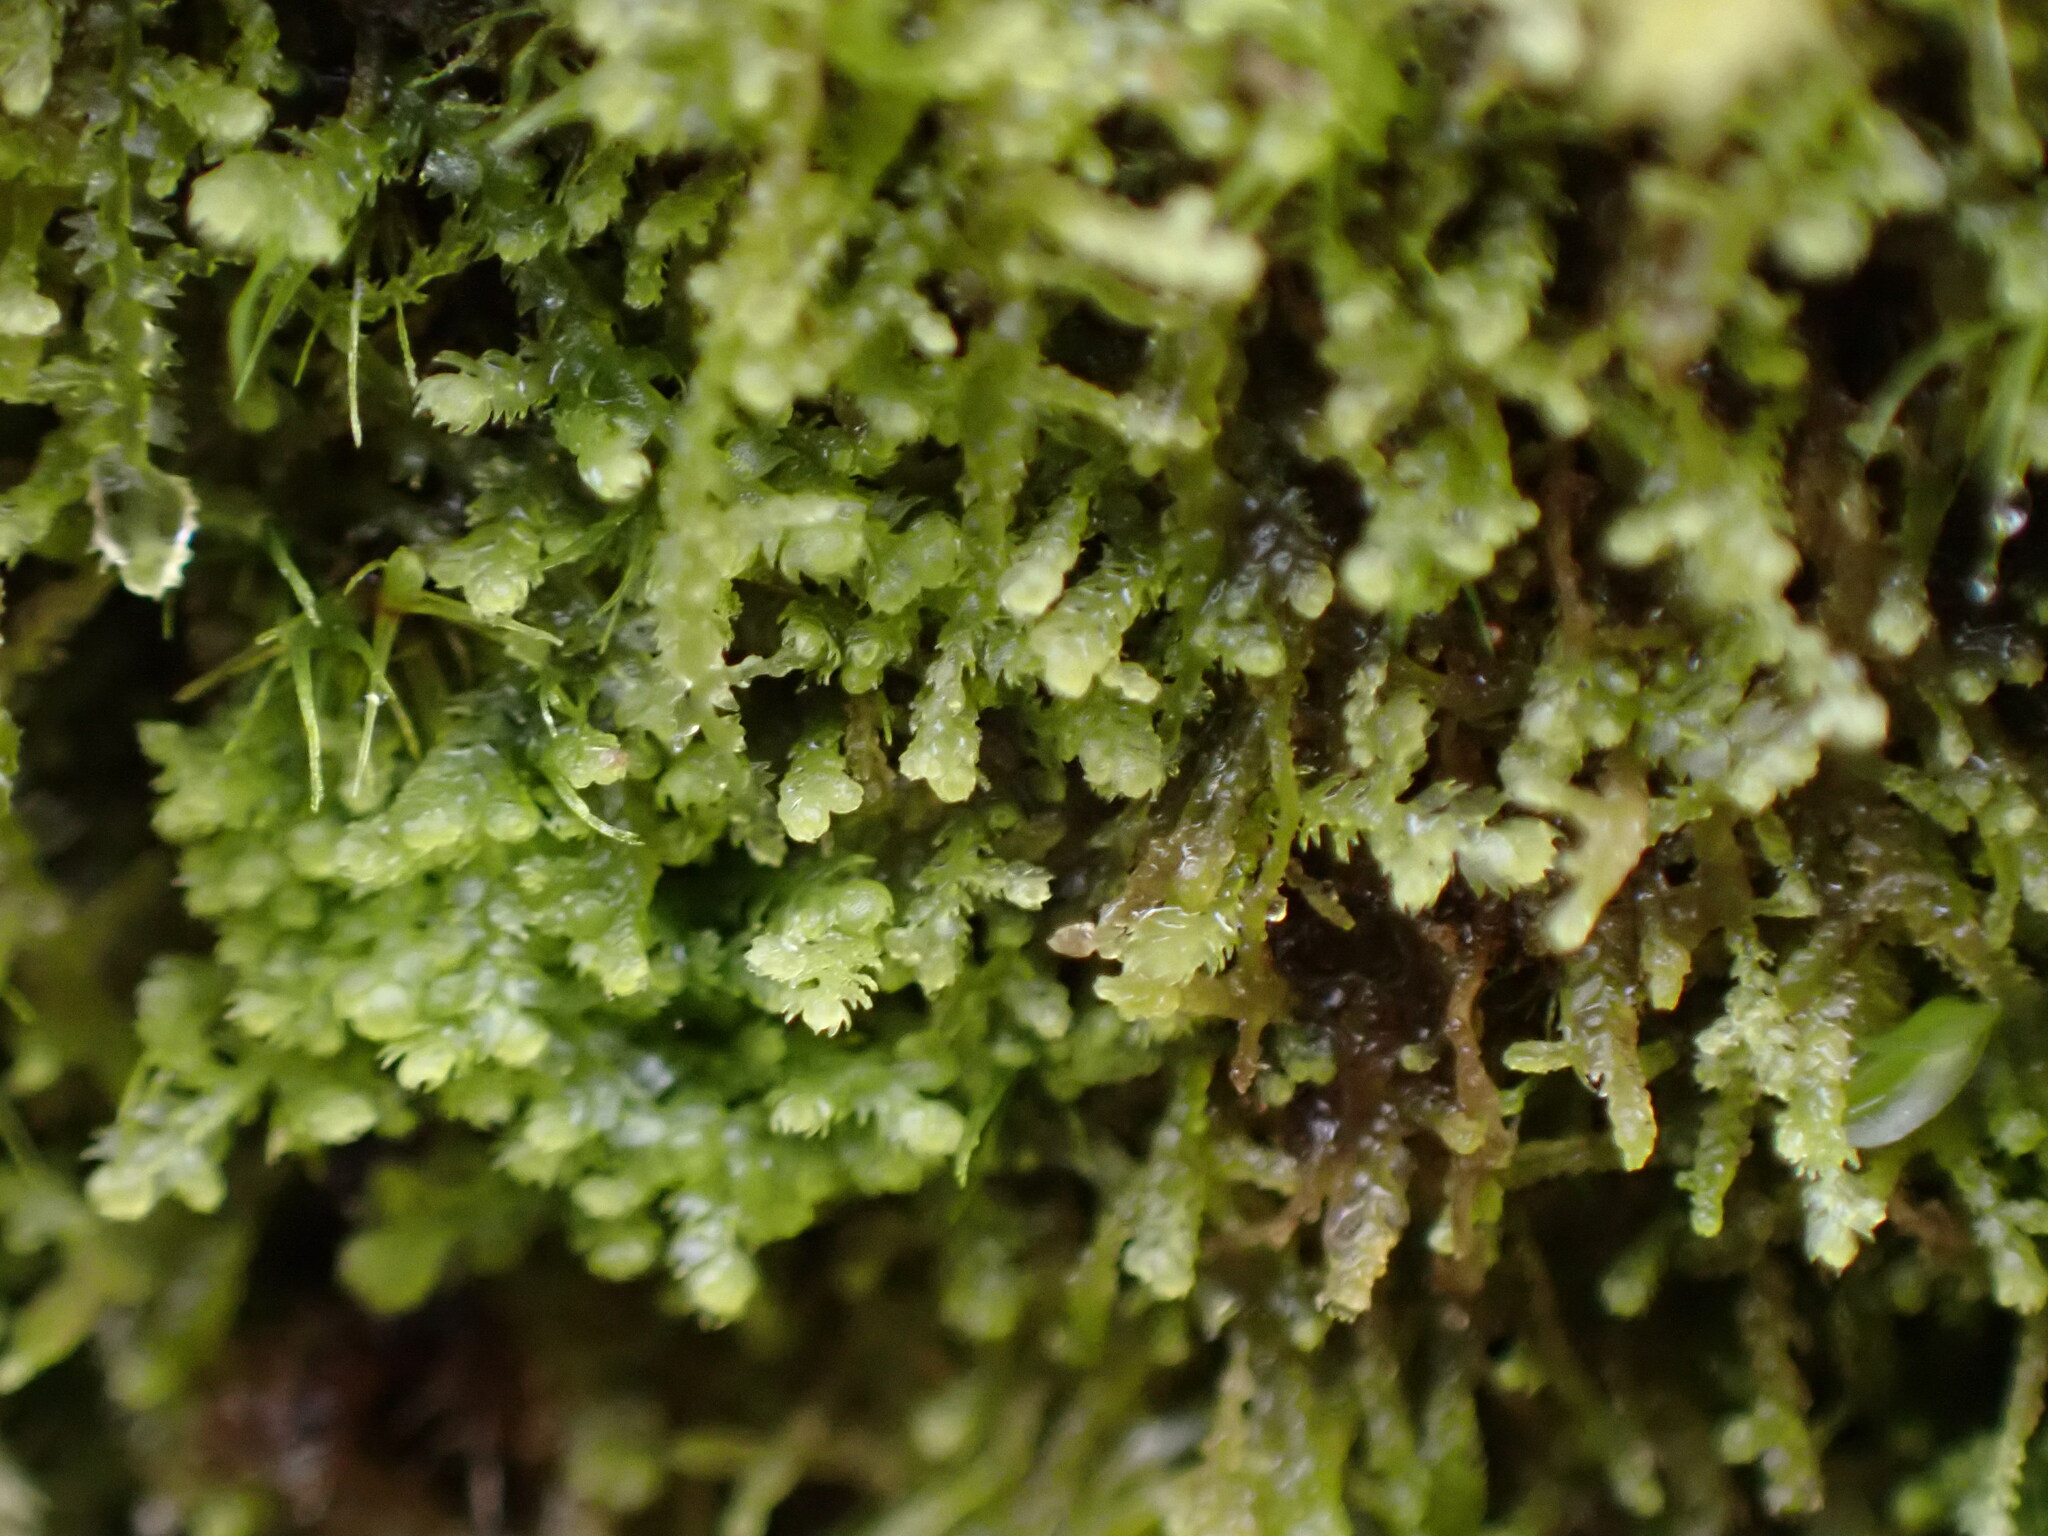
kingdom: Plantae
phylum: Marchantiophyta
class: Jungermanniopsida
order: Jungermanniales
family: Lepidoziaceae
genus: Lepidozia
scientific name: Lepidozia reptans
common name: Creeping fingerwort
